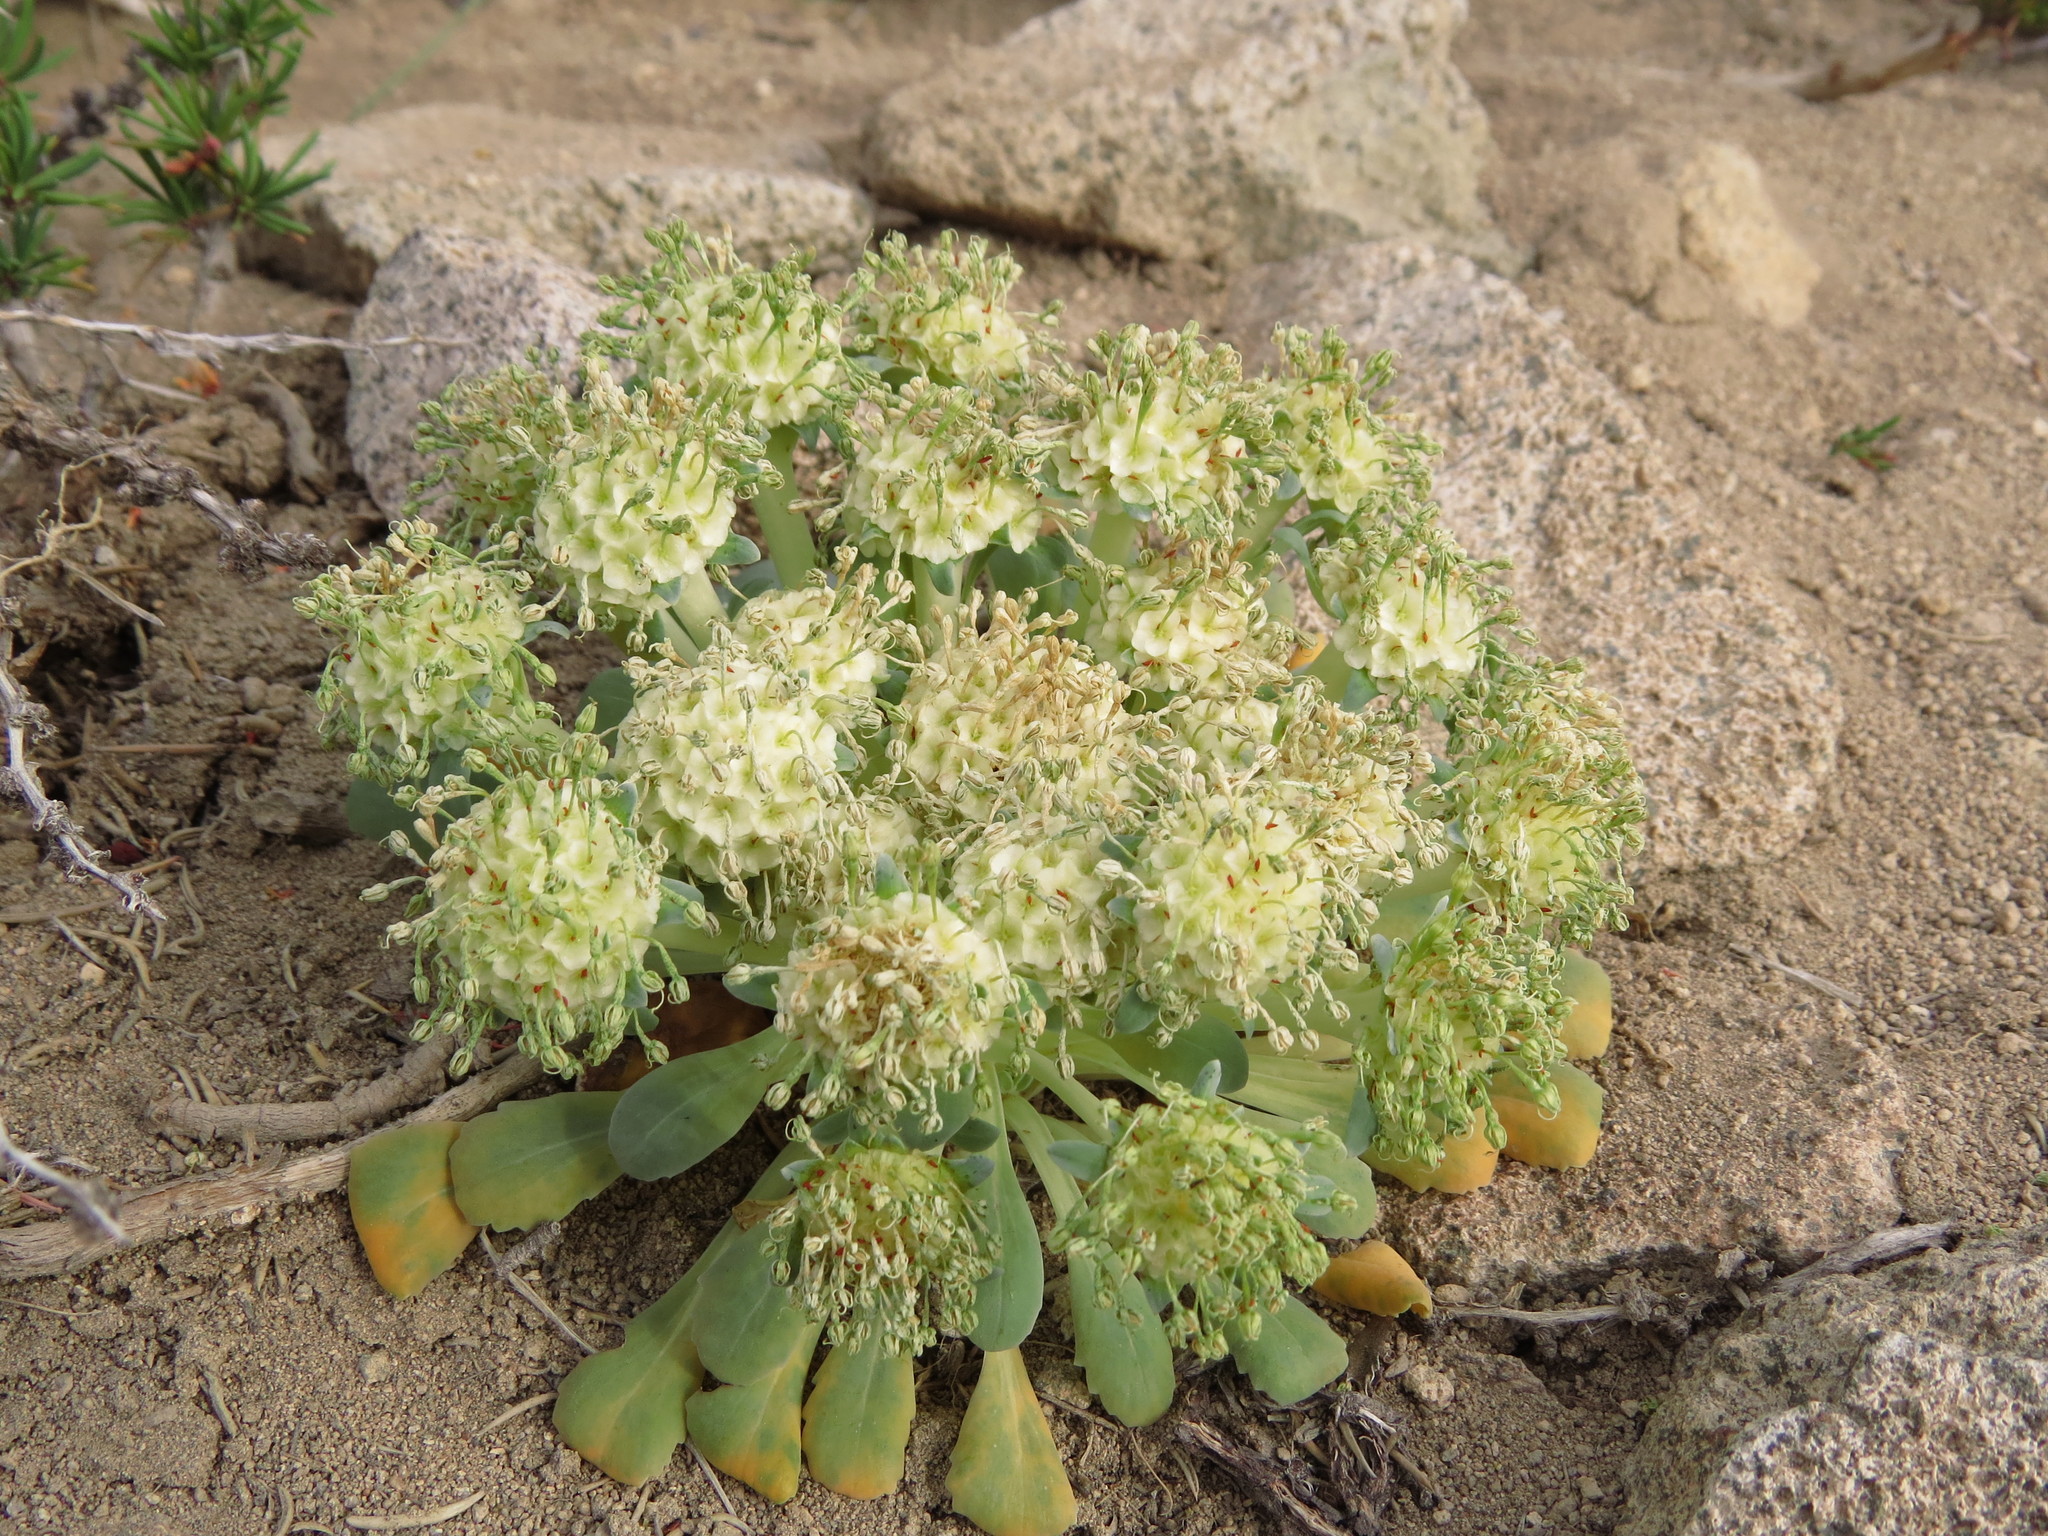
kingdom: Plantae
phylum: Tracheophyta
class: Magnoliopsida
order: Asterales
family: Calyceraceae
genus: Gamocarpha
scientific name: Gamocarpha scapigera
